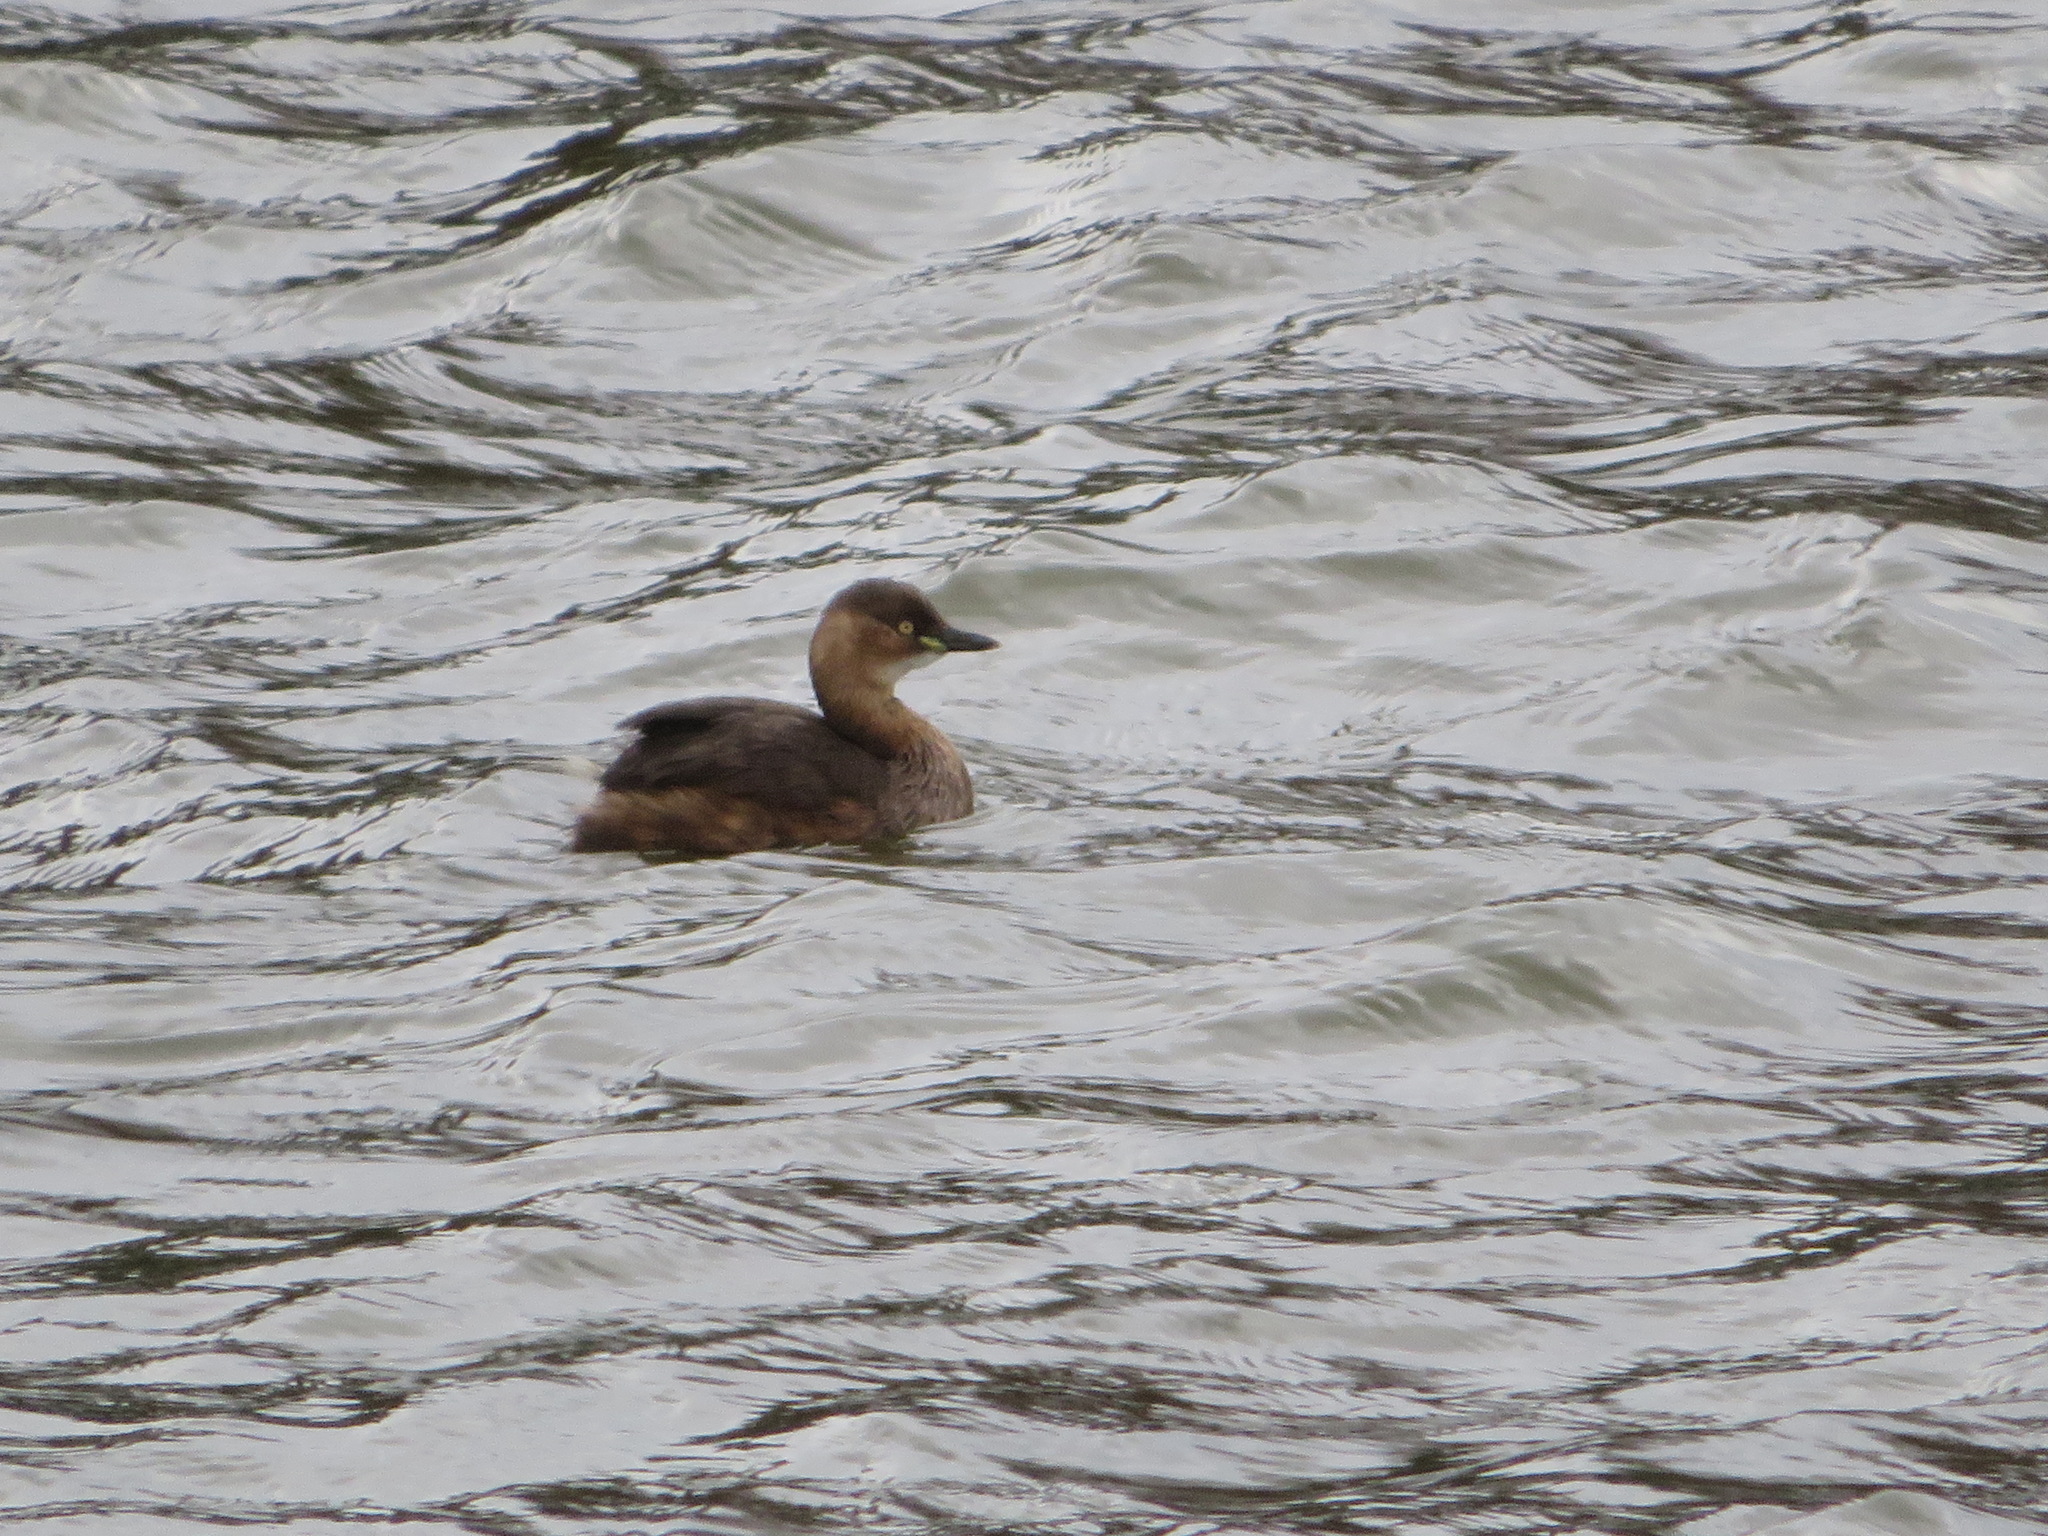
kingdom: Animalia
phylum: Chordata
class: Aves
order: Podicipediformes
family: Podicipedidae
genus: Tachybaptus
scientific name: Tachybaptus ruficollis
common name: Little grebe
